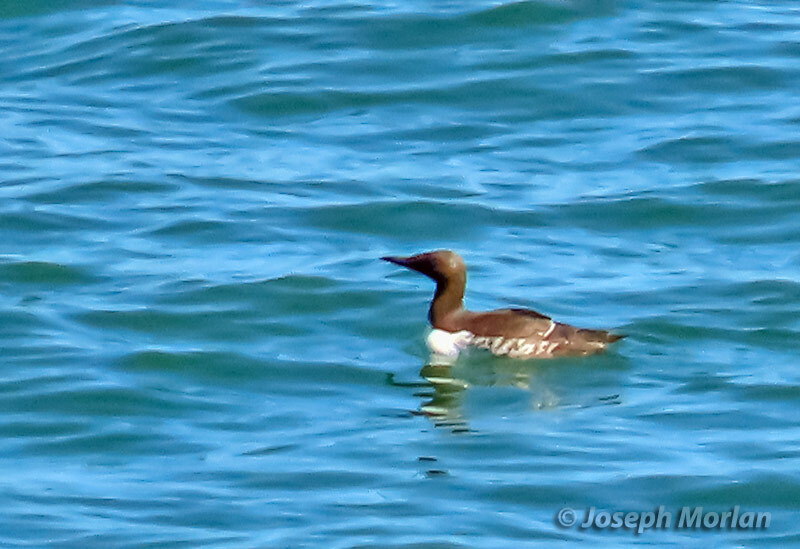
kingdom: Animalia
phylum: Chordata
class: Aves
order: Charadriiformes
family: Alcidae
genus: Uria
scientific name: Uria aalge
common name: Common murre
